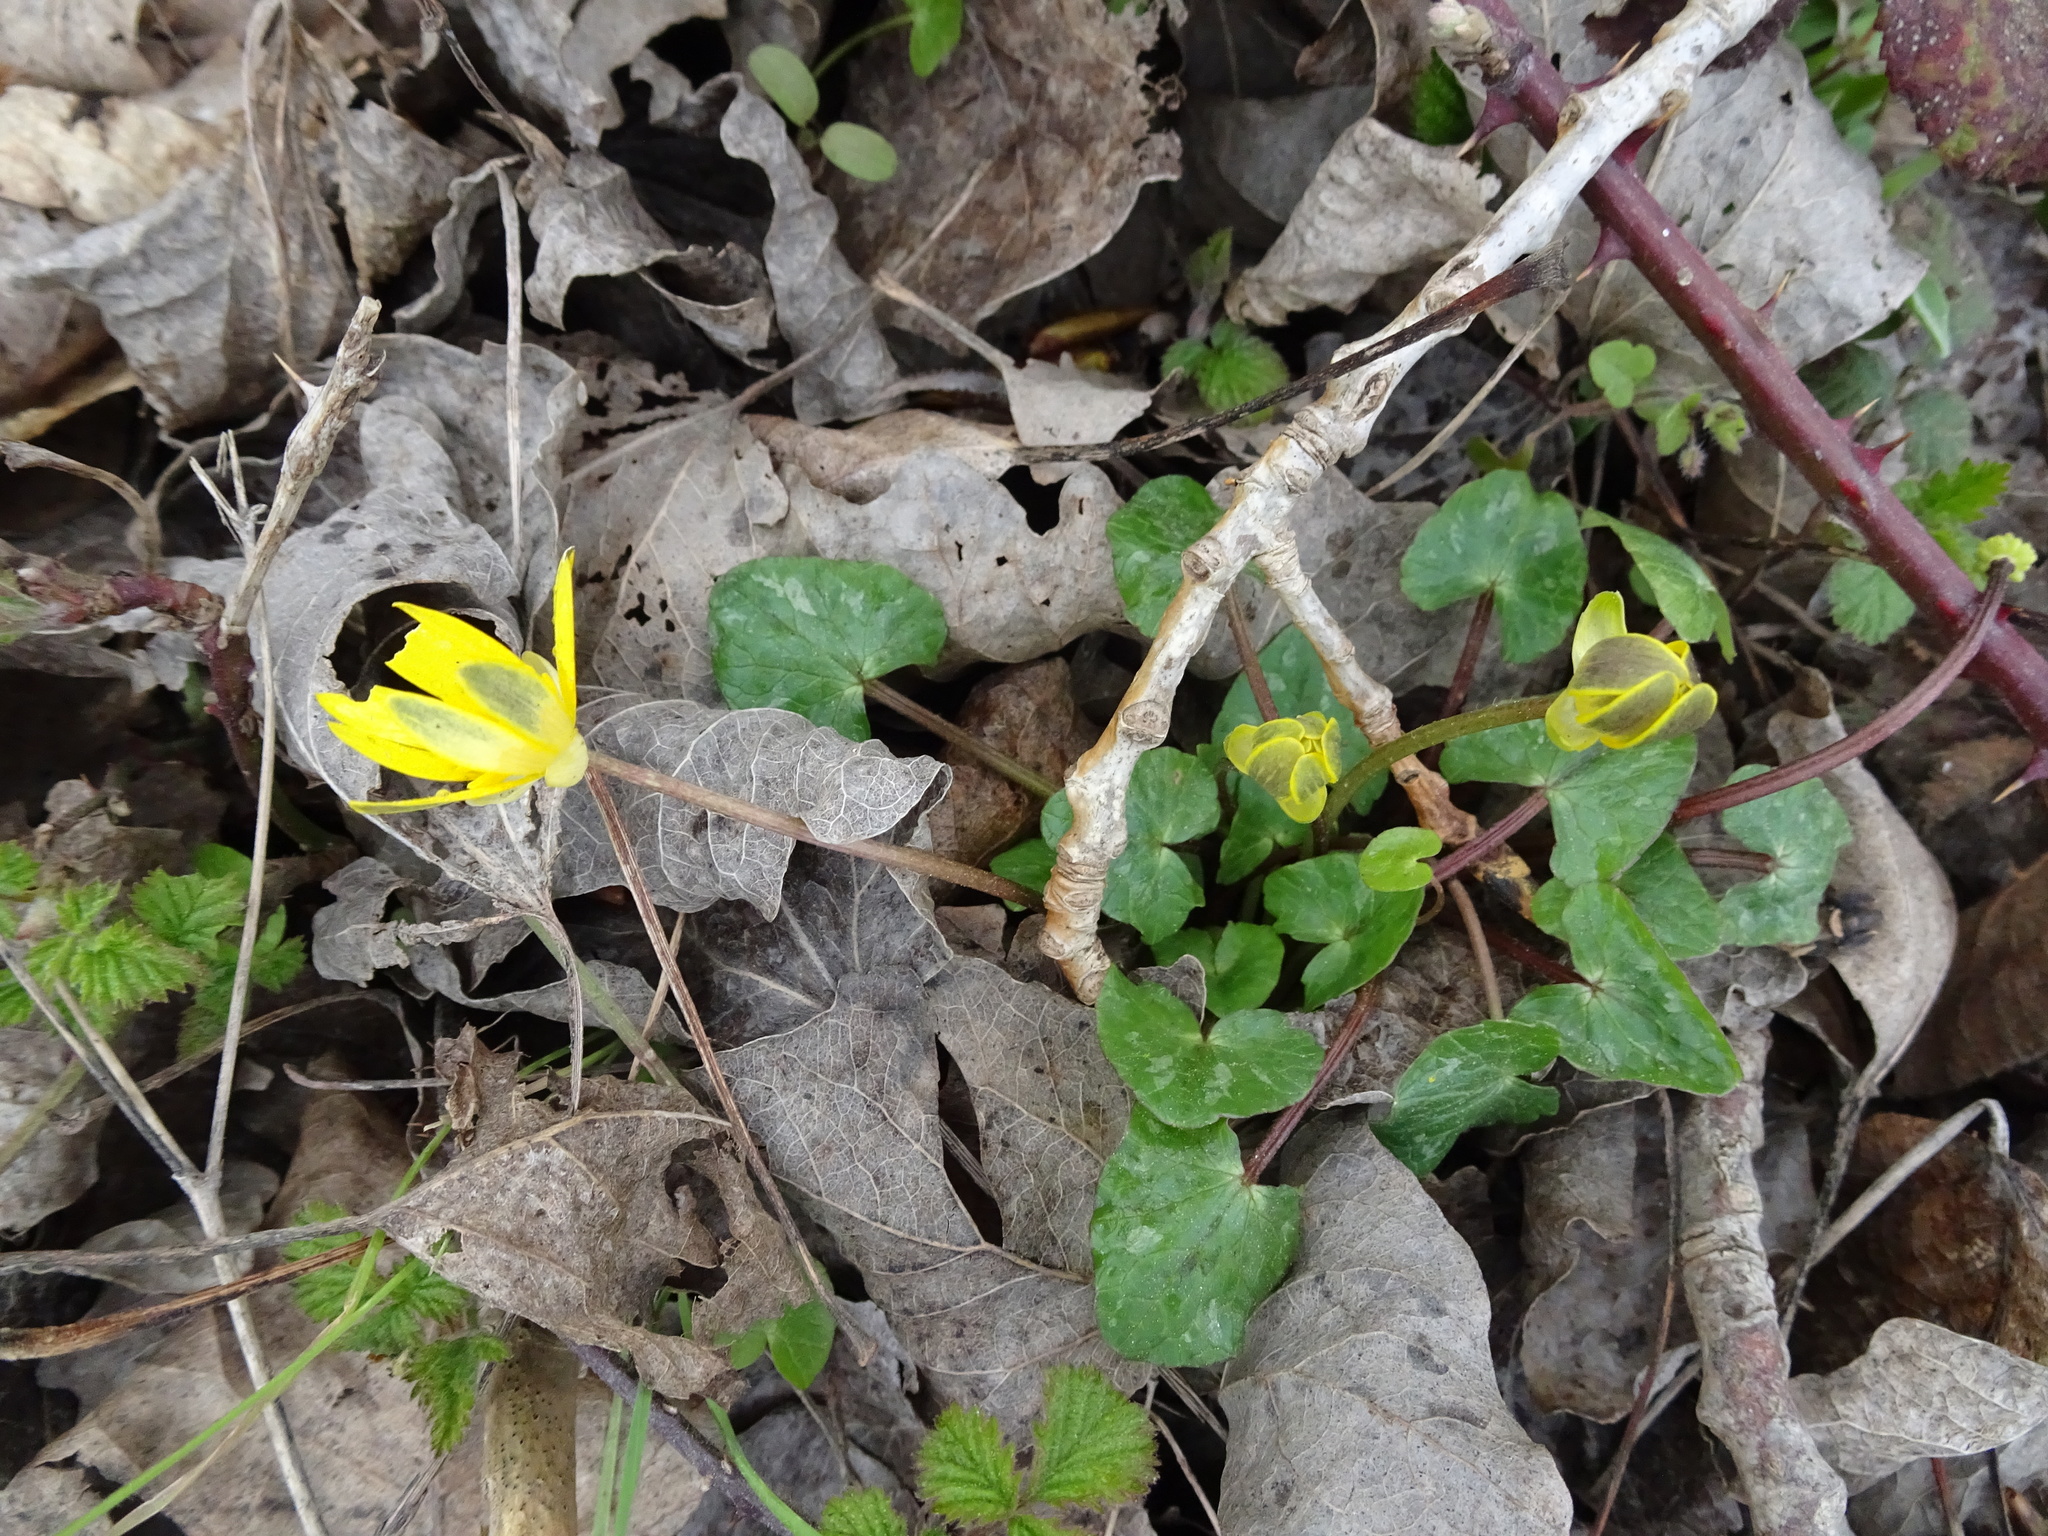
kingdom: Plantae
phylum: Tracheophyta
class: Magnoliopsida
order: Ranunculales
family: Ranunculaceae
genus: Ficaria
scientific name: Ficaria verna
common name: Lesser celandine
